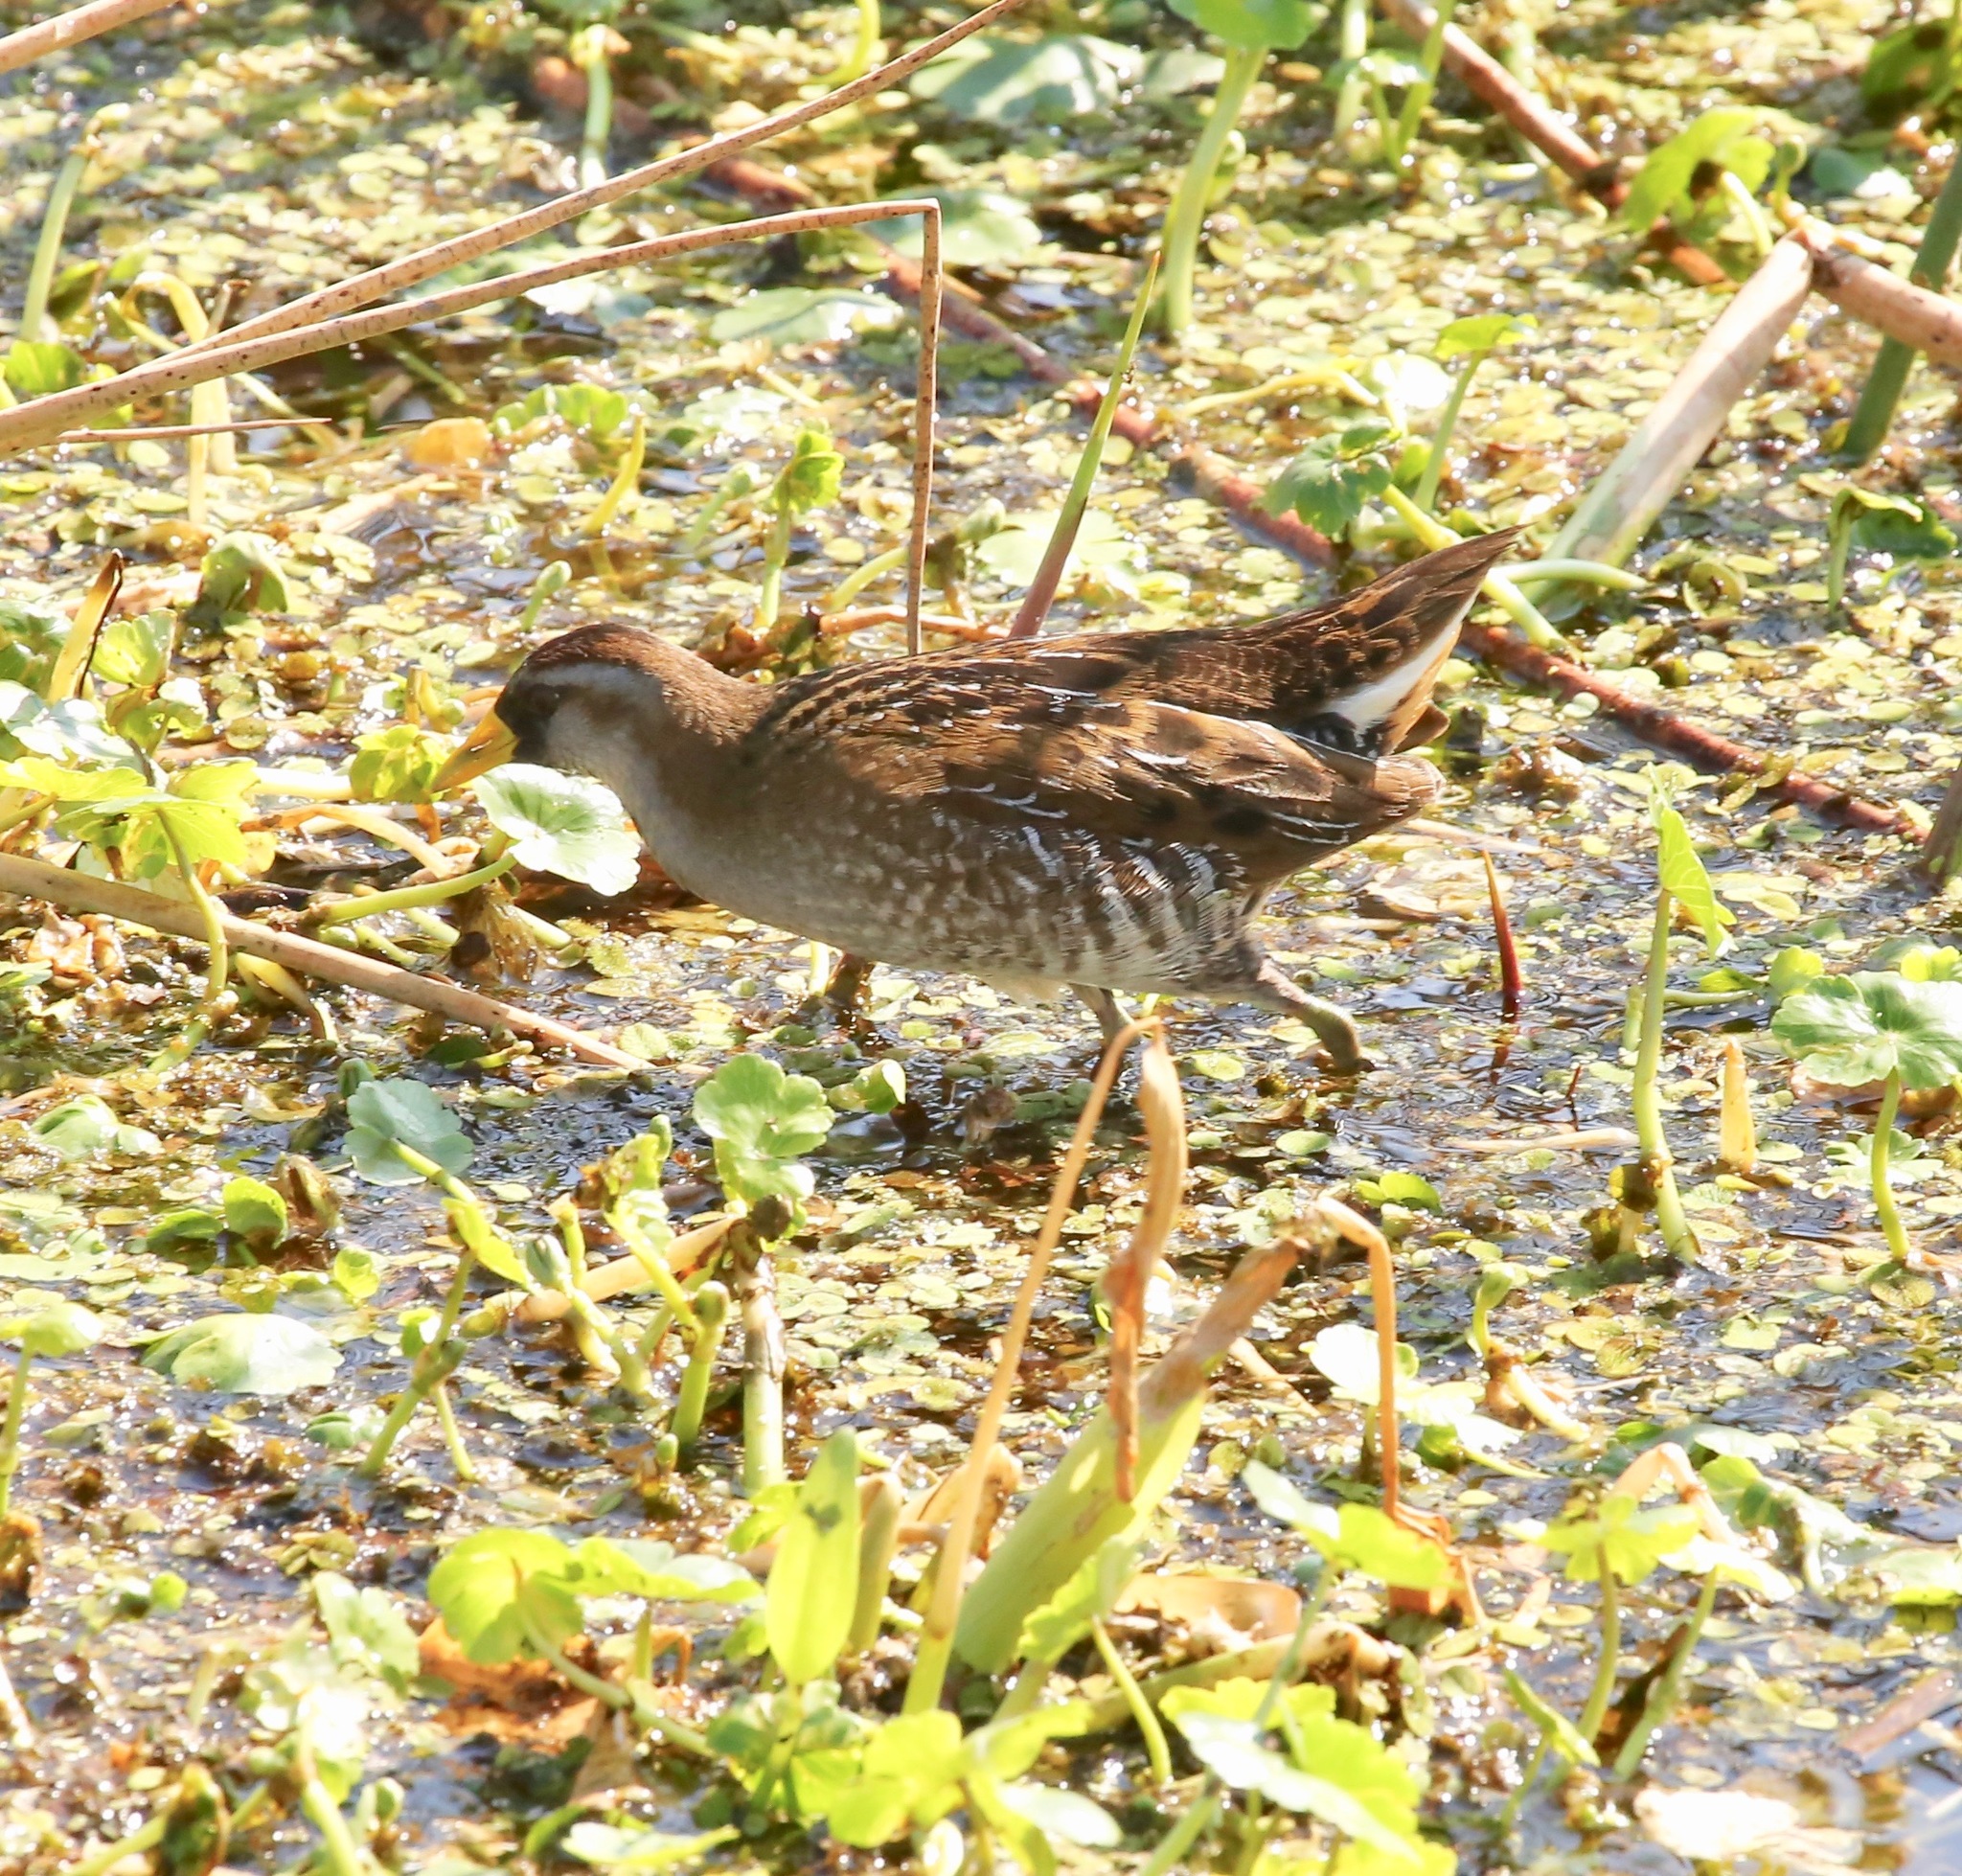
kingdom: Animalia
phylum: Chordata
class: Aves
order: Gruiformes
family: Rallidae
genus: Porzana
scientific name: Porzana carolina
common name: Sora
